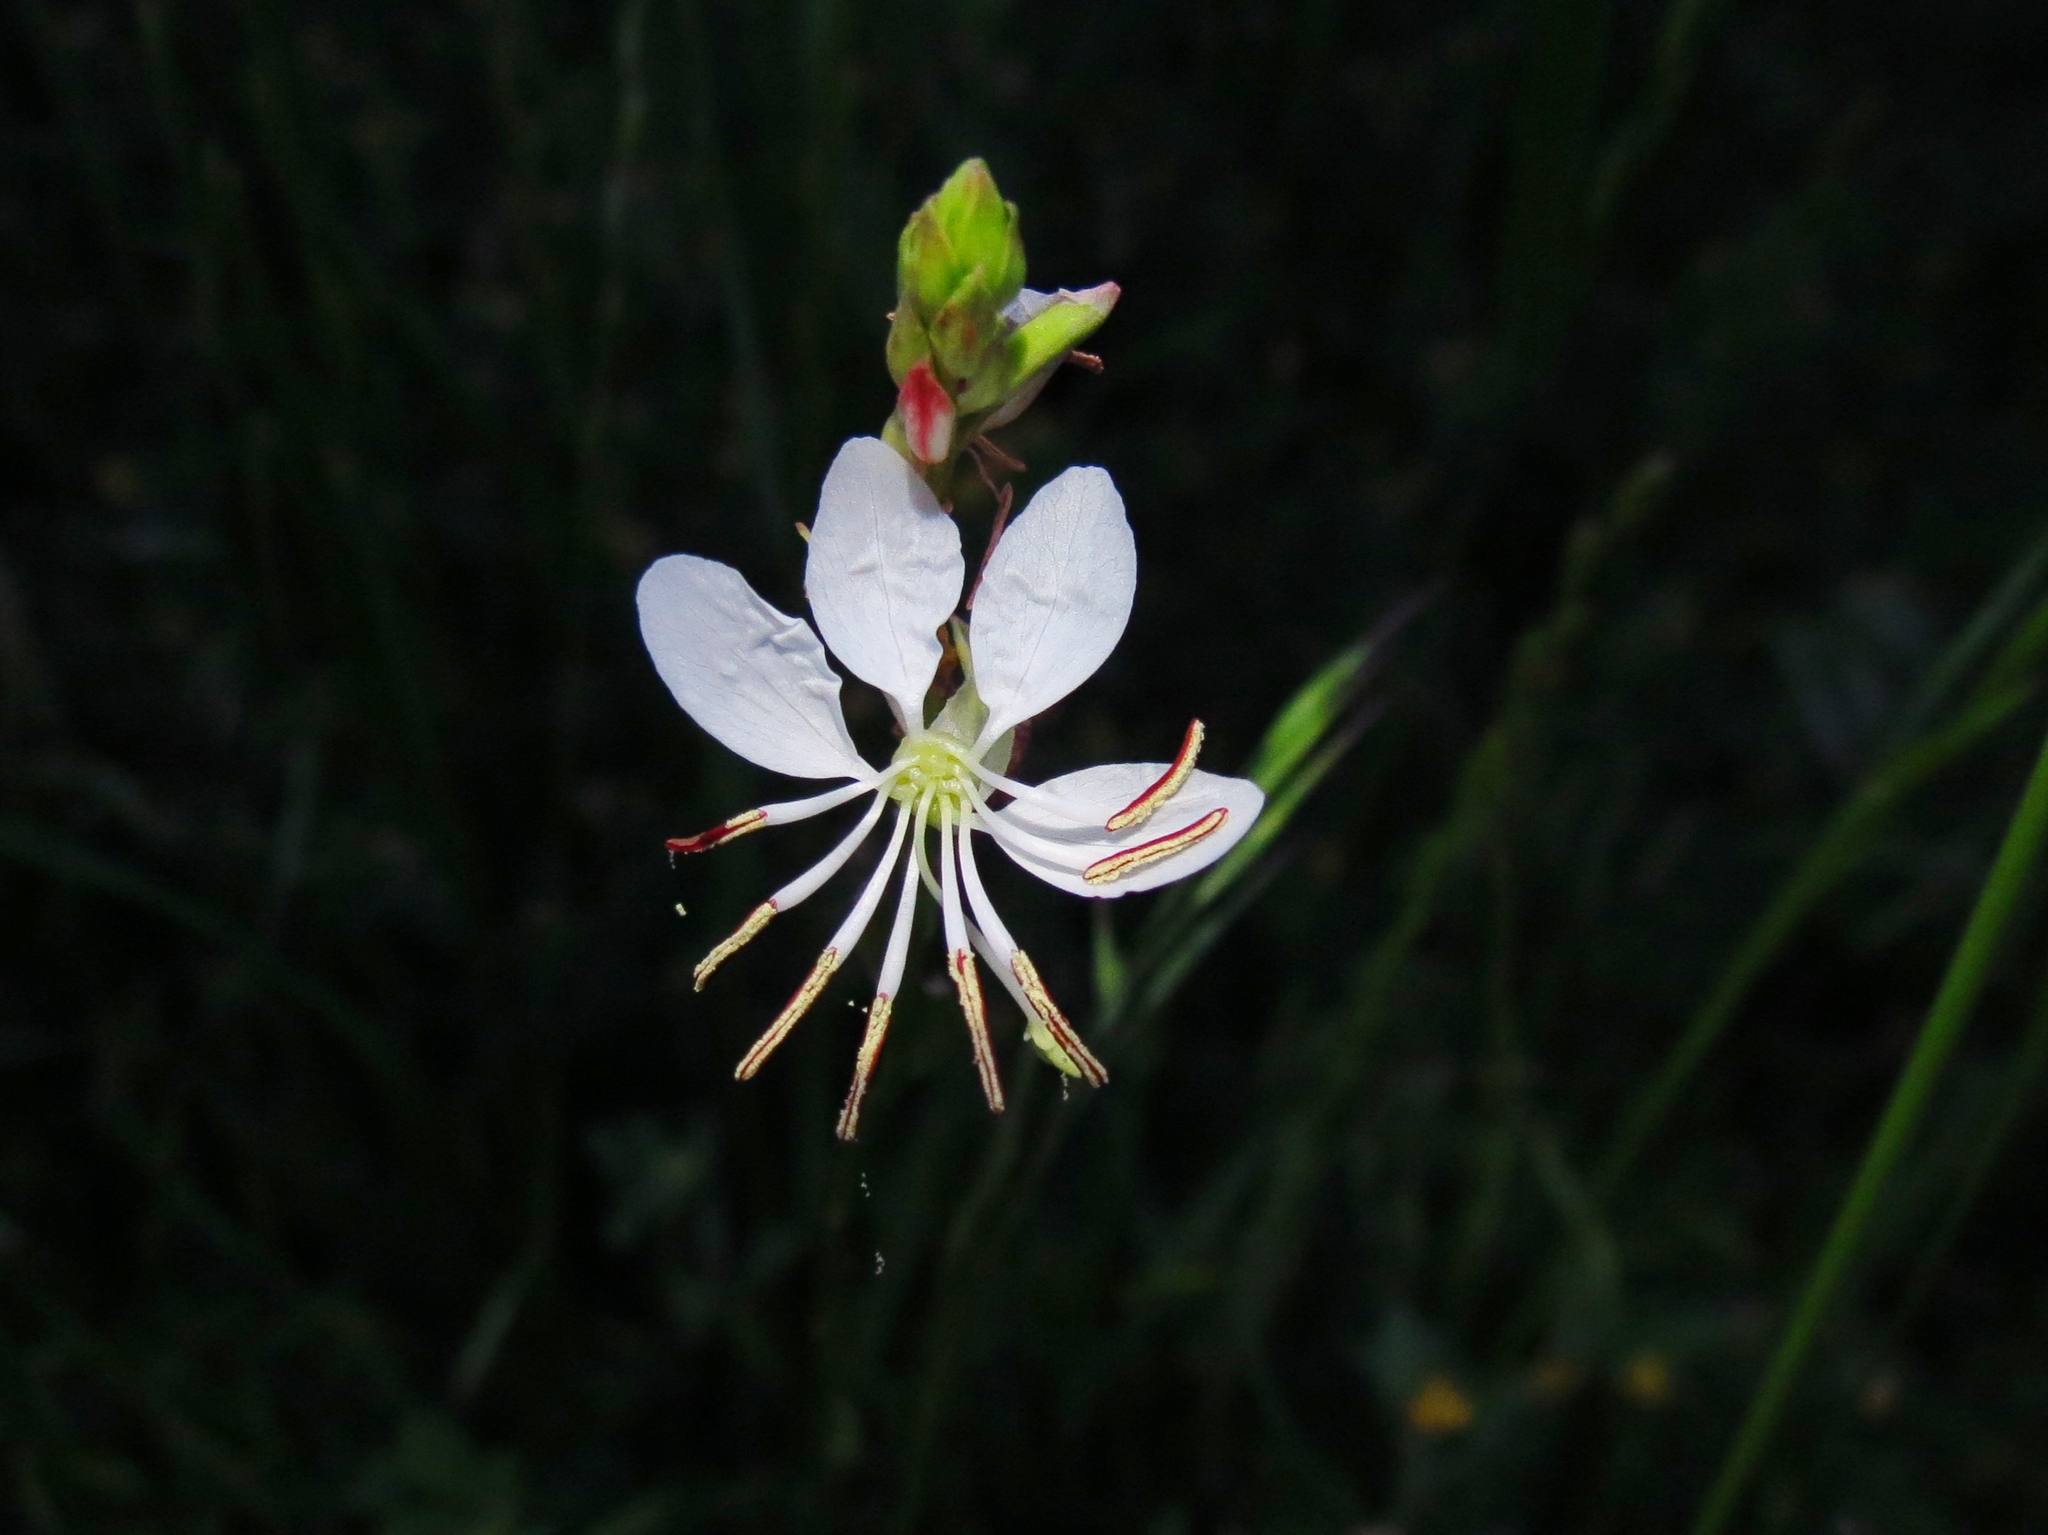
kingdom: Plantae
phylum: Tracheophyta
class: Magnoliopsida
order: Myrtales
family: Onagraceae
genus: Oenothera
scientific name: Oenothera suffulta
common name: Kisses
